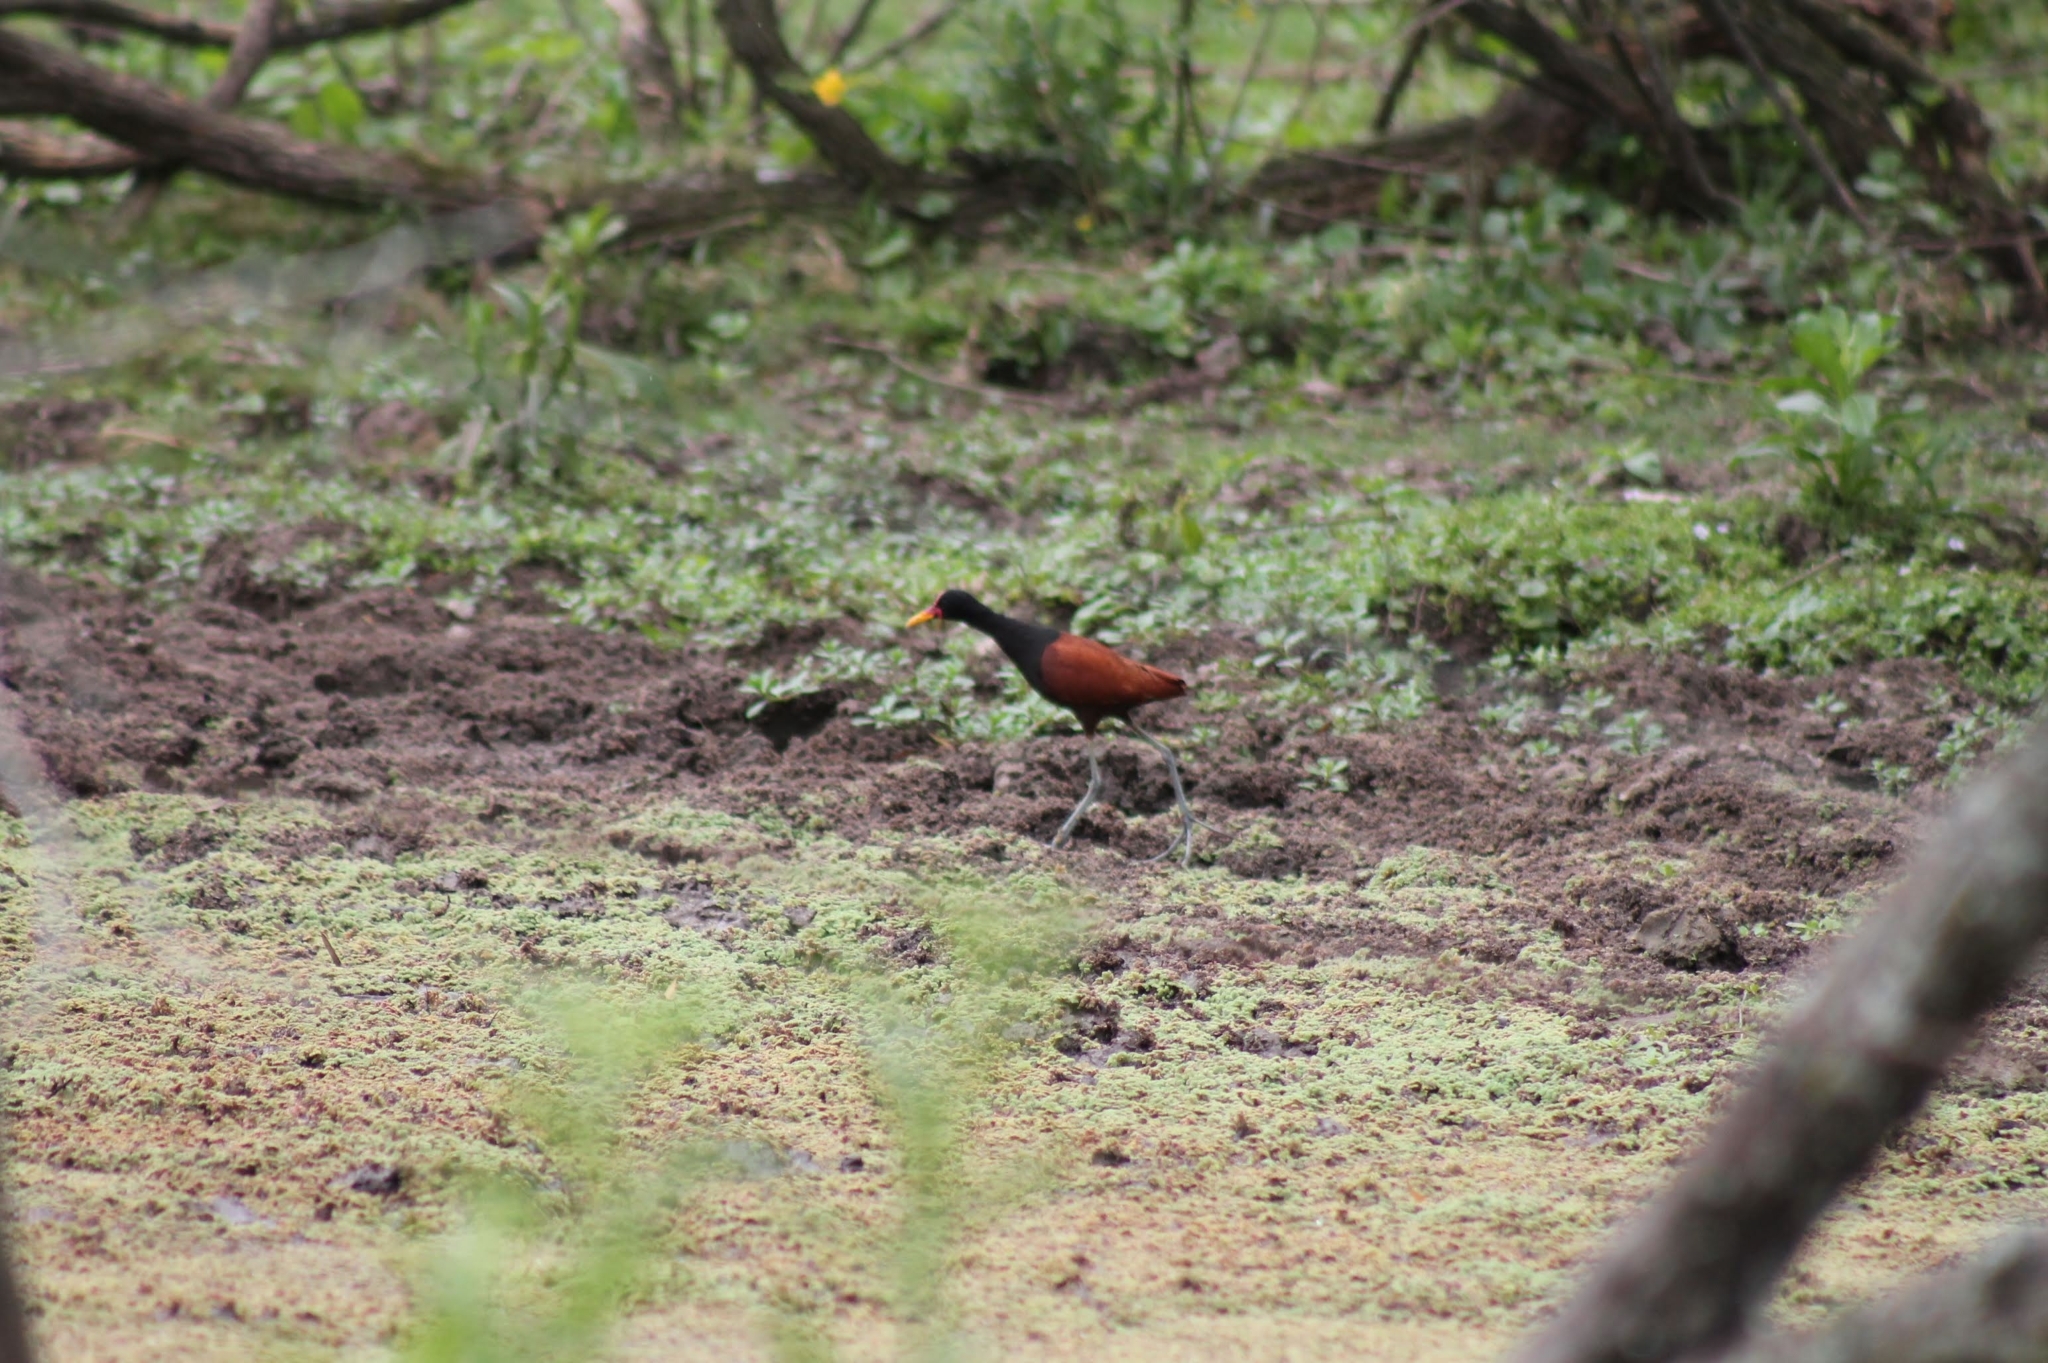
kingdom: Animalia
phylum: Chordata
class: Aves
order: Charadriiformes
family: Jacanidae
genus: Jacana
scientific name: Jacana jacana
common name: Wattled jacana
